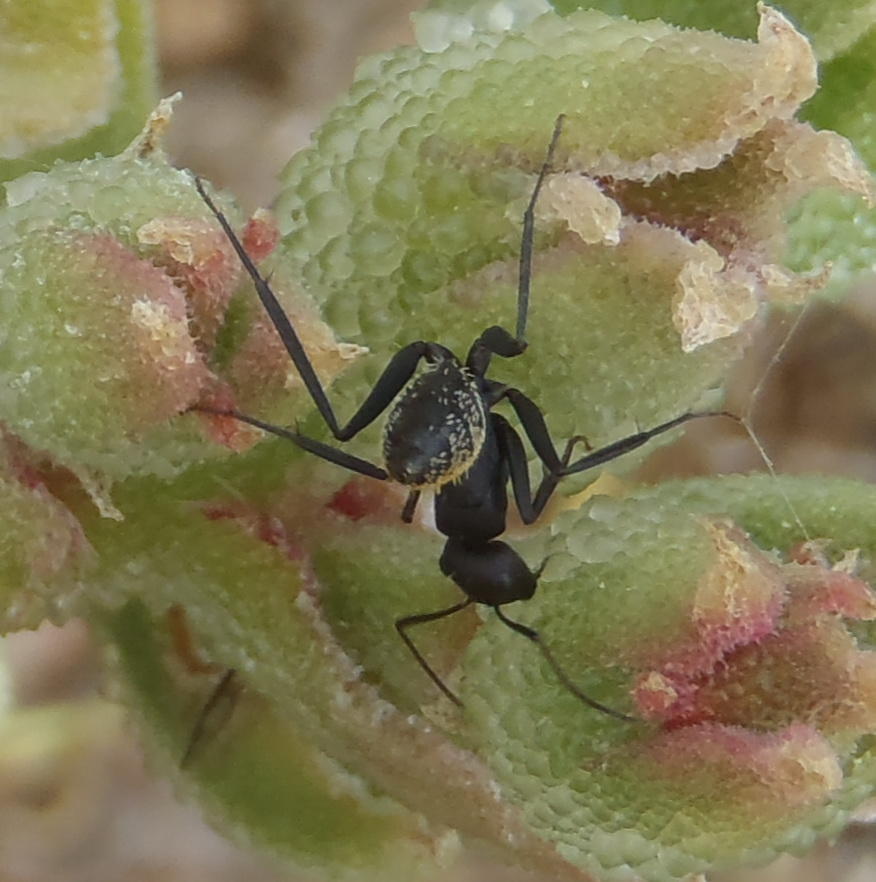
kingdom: Animalia
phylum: Arthropoda
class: Insecta
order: Hymenoptera
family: Formicidae
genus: Camponotus
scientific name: Camponotus fulvopilosus
